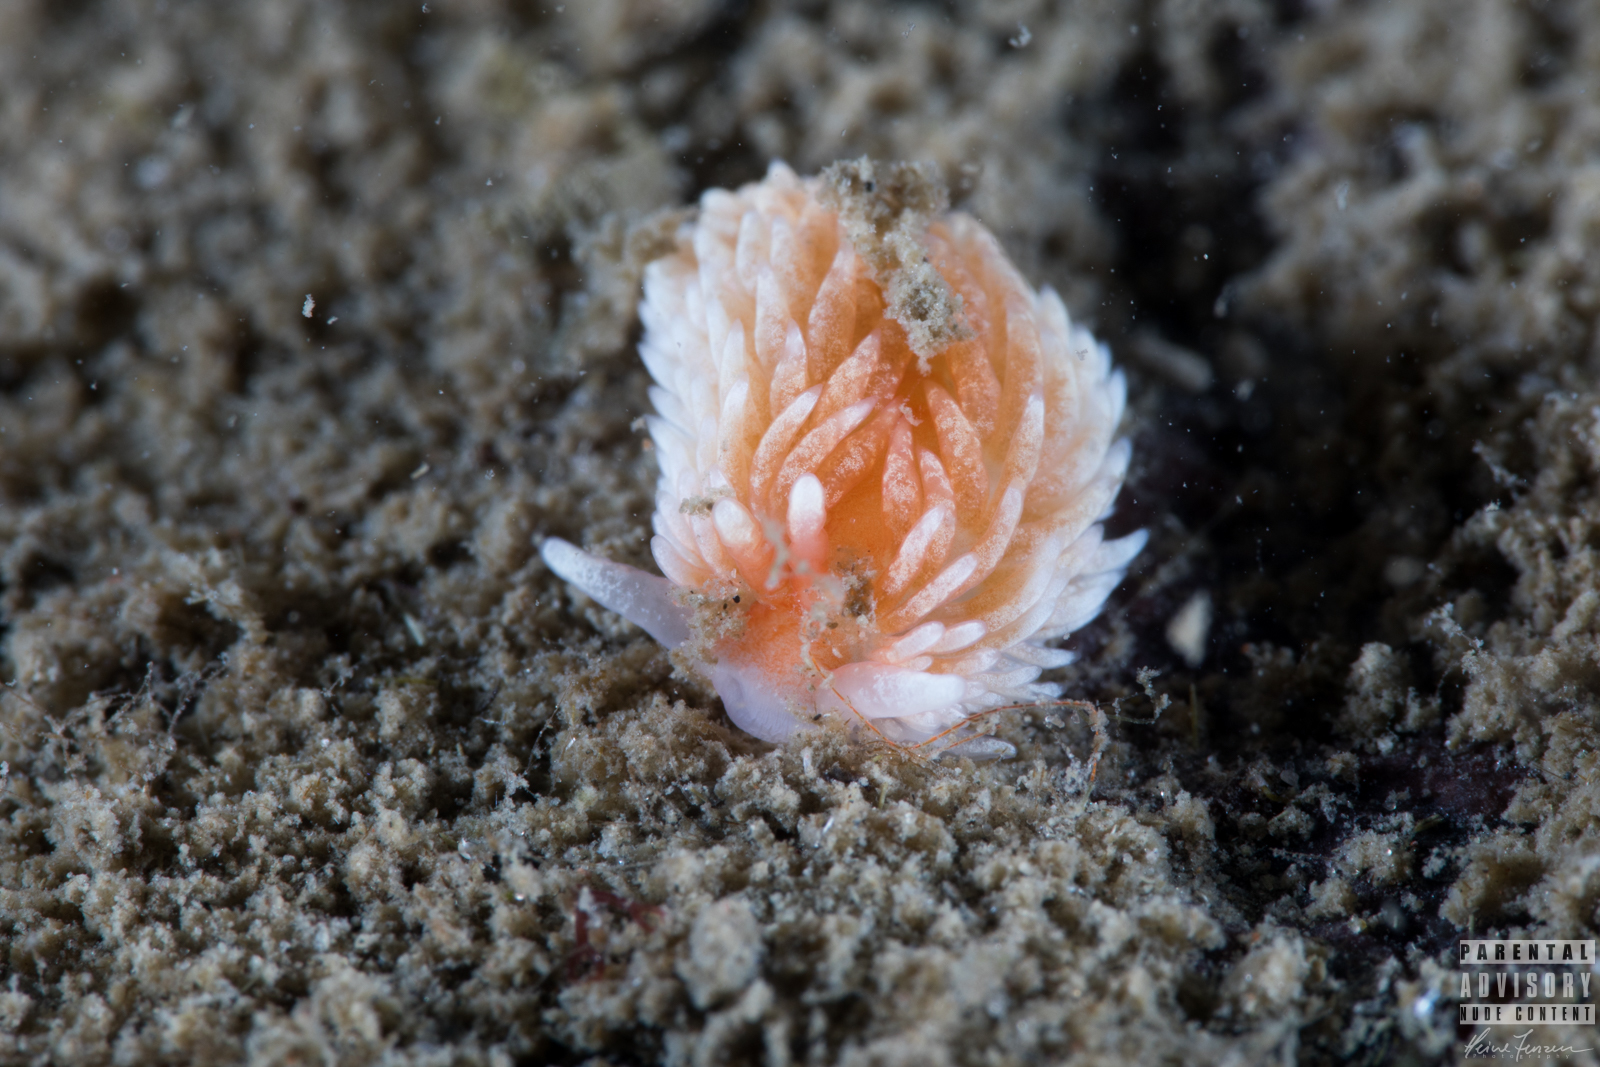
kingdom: Animalia
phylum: Mollusca
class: Gastropoda
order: Nudibranchia
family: Aeolidiidae
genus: Aeolidiella
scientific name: Aeolidiella glauca
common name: Orange-brown aeolid
